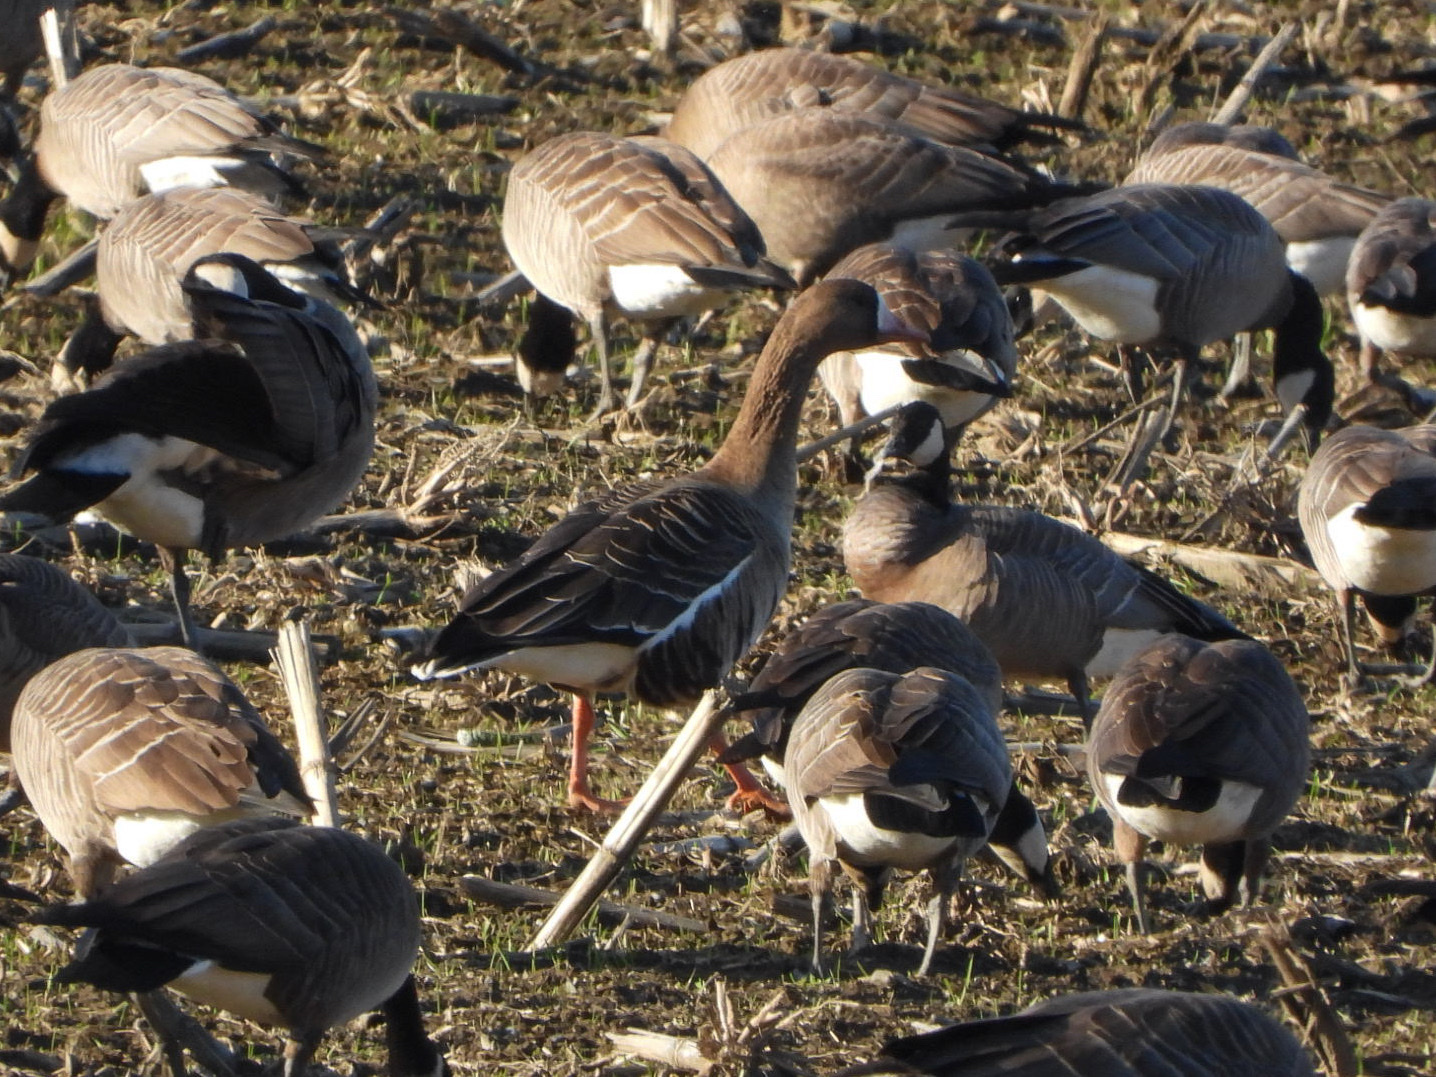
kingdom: Animalia
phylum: Chordata
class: Aves
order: Anseriformes
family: Anatidae
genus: Anser
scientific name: Anser albifrons
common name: Greater white-fronted goose
